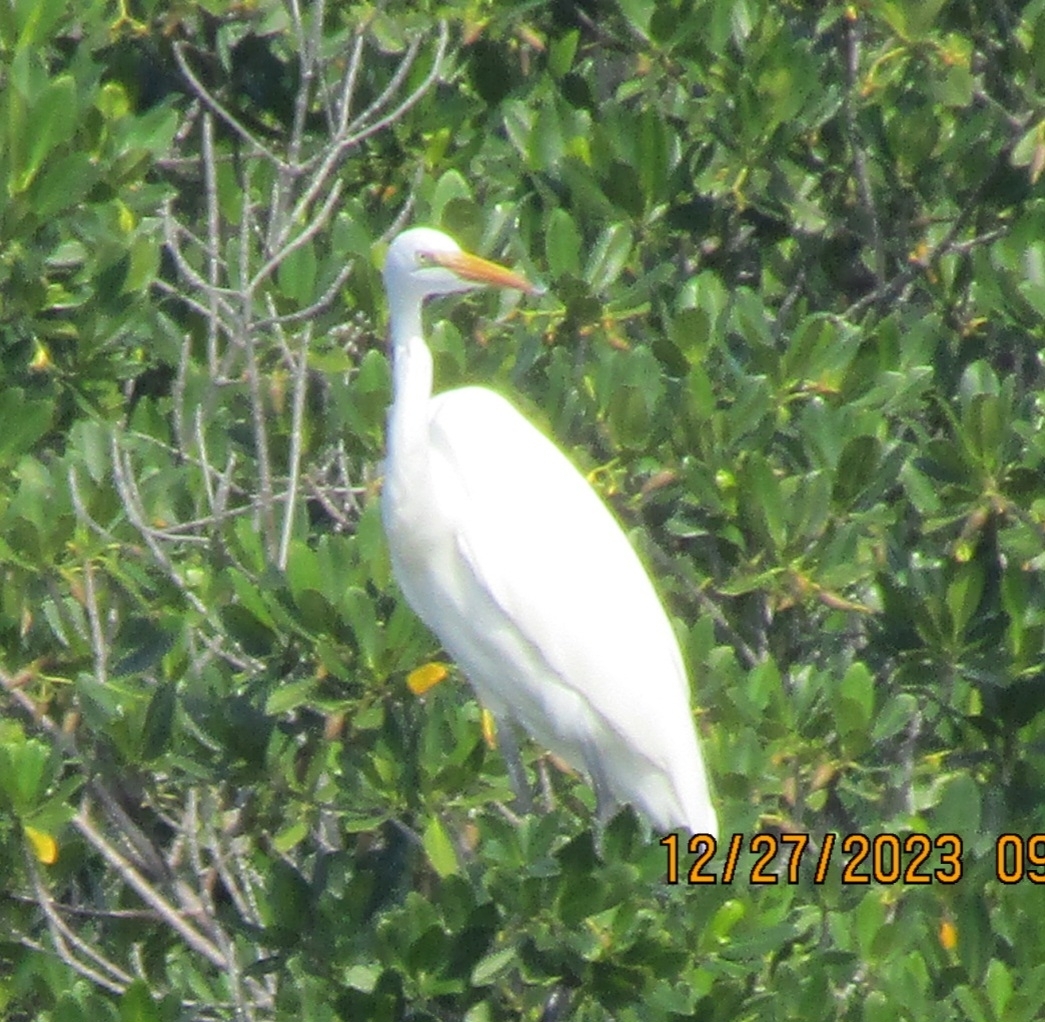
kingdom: Animalia
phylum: Chordata
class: Aves
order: Pelecaniformes
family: Ardeidae
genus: Ardea
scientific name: Ardea alba
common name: Great egret
